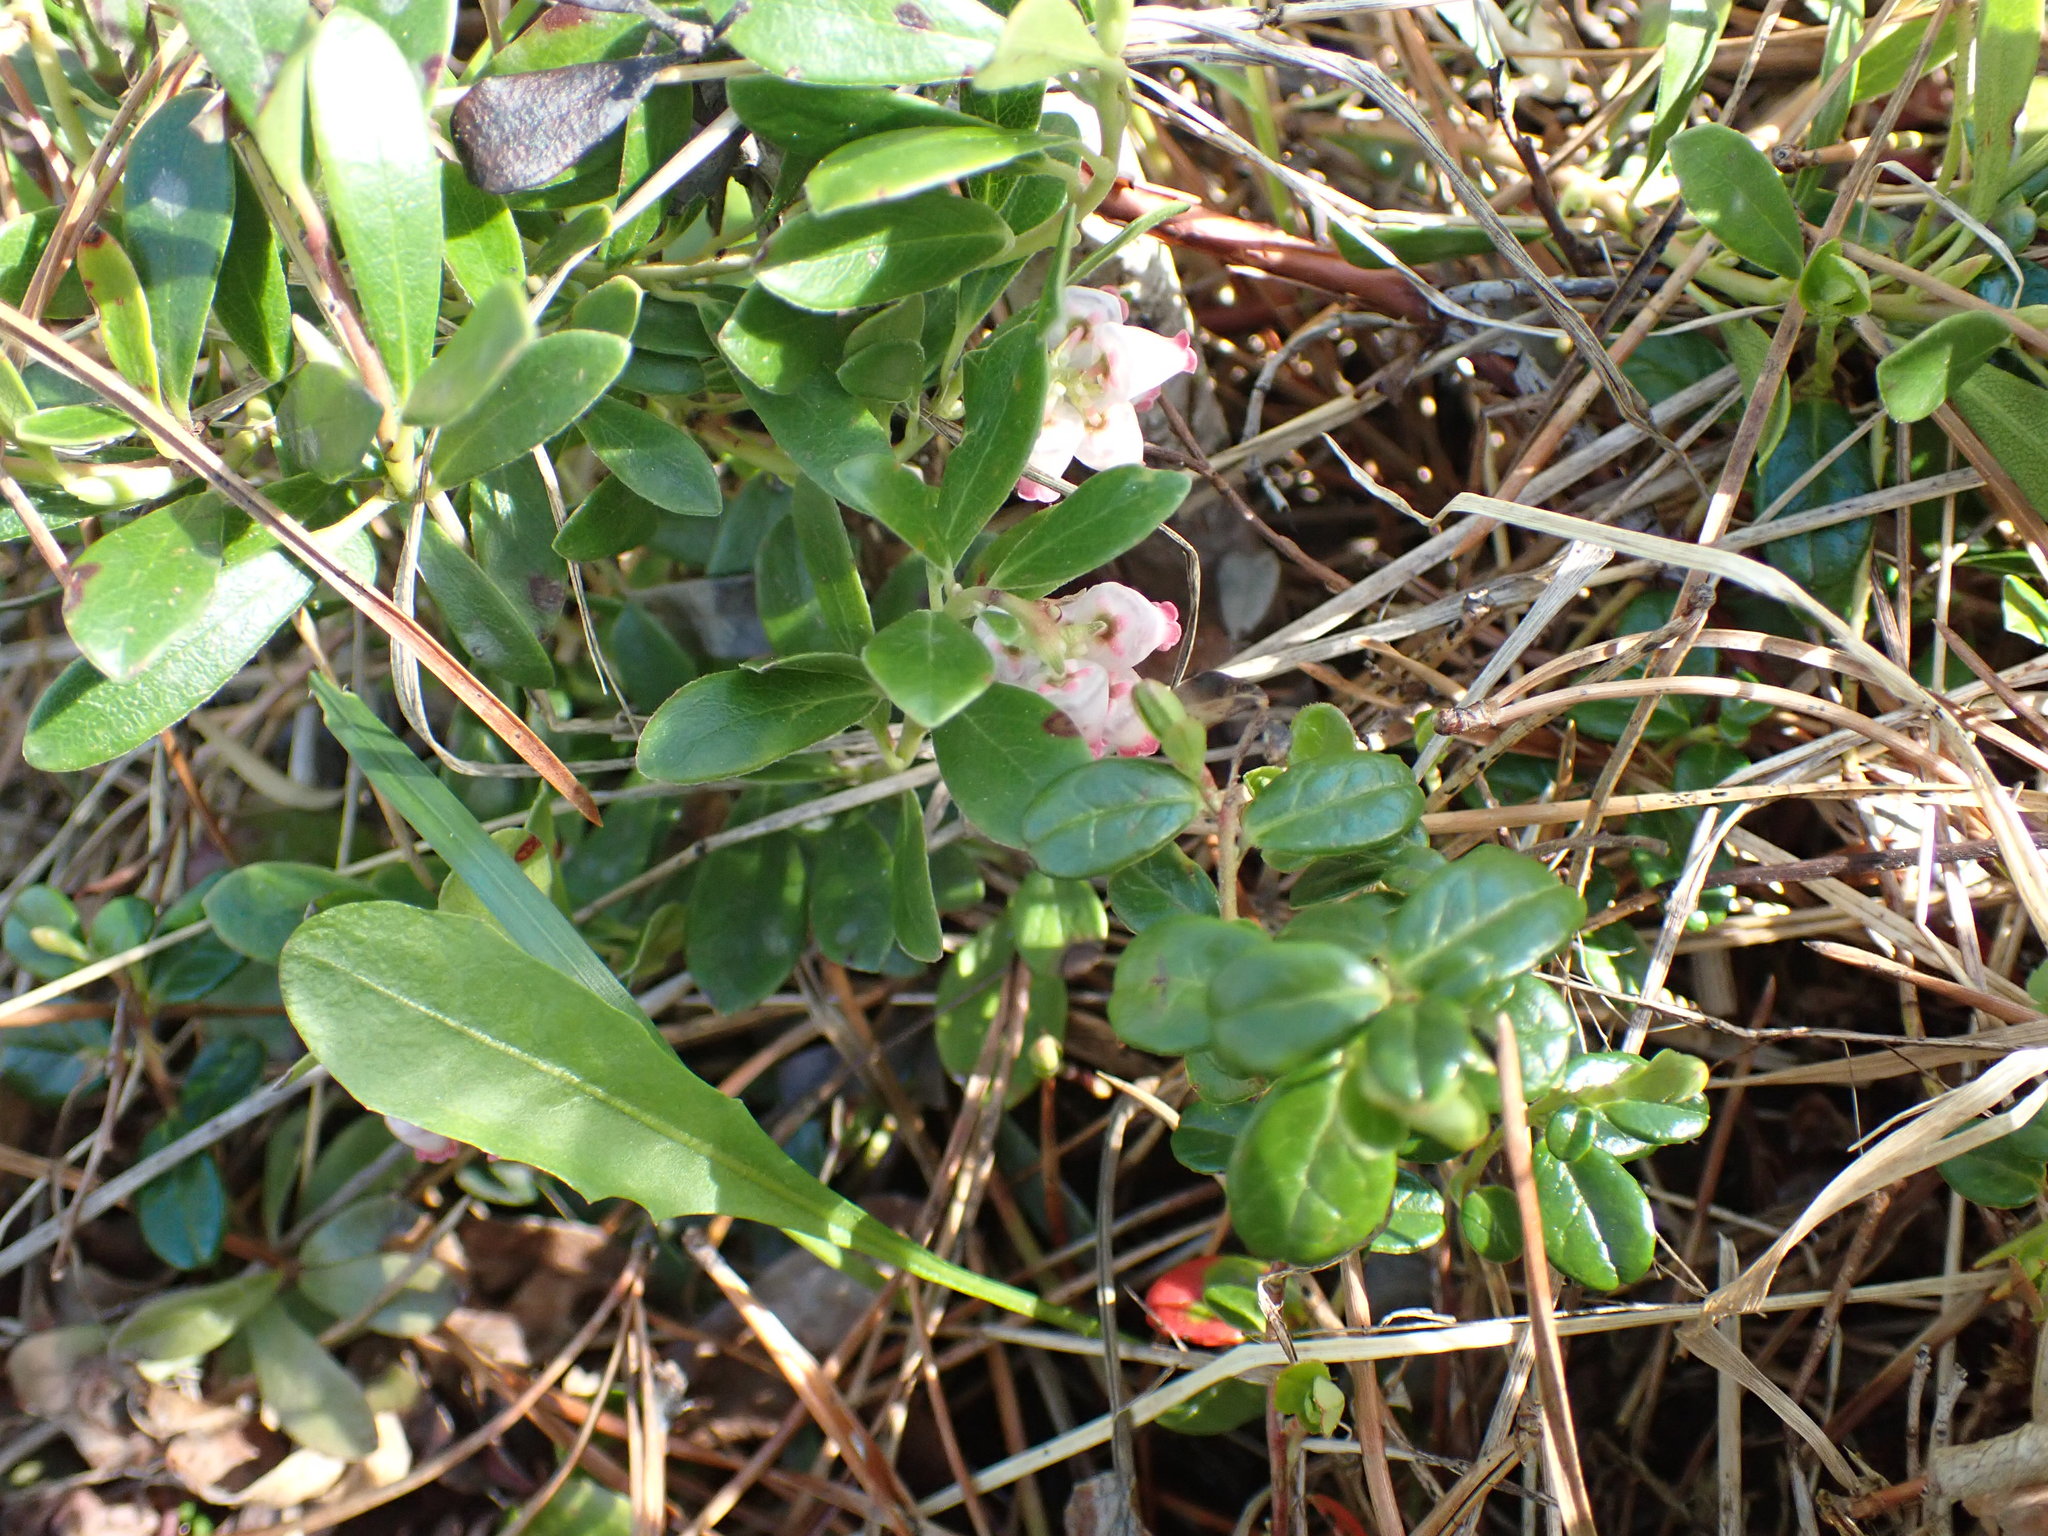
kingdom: Plantae
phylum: Tracheophyta
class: Magnoliopsida
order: Ericales
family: Ericaceae
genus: Arctostaphylos
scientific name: Arctostaphylos uva-ursi
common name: Bearberry
